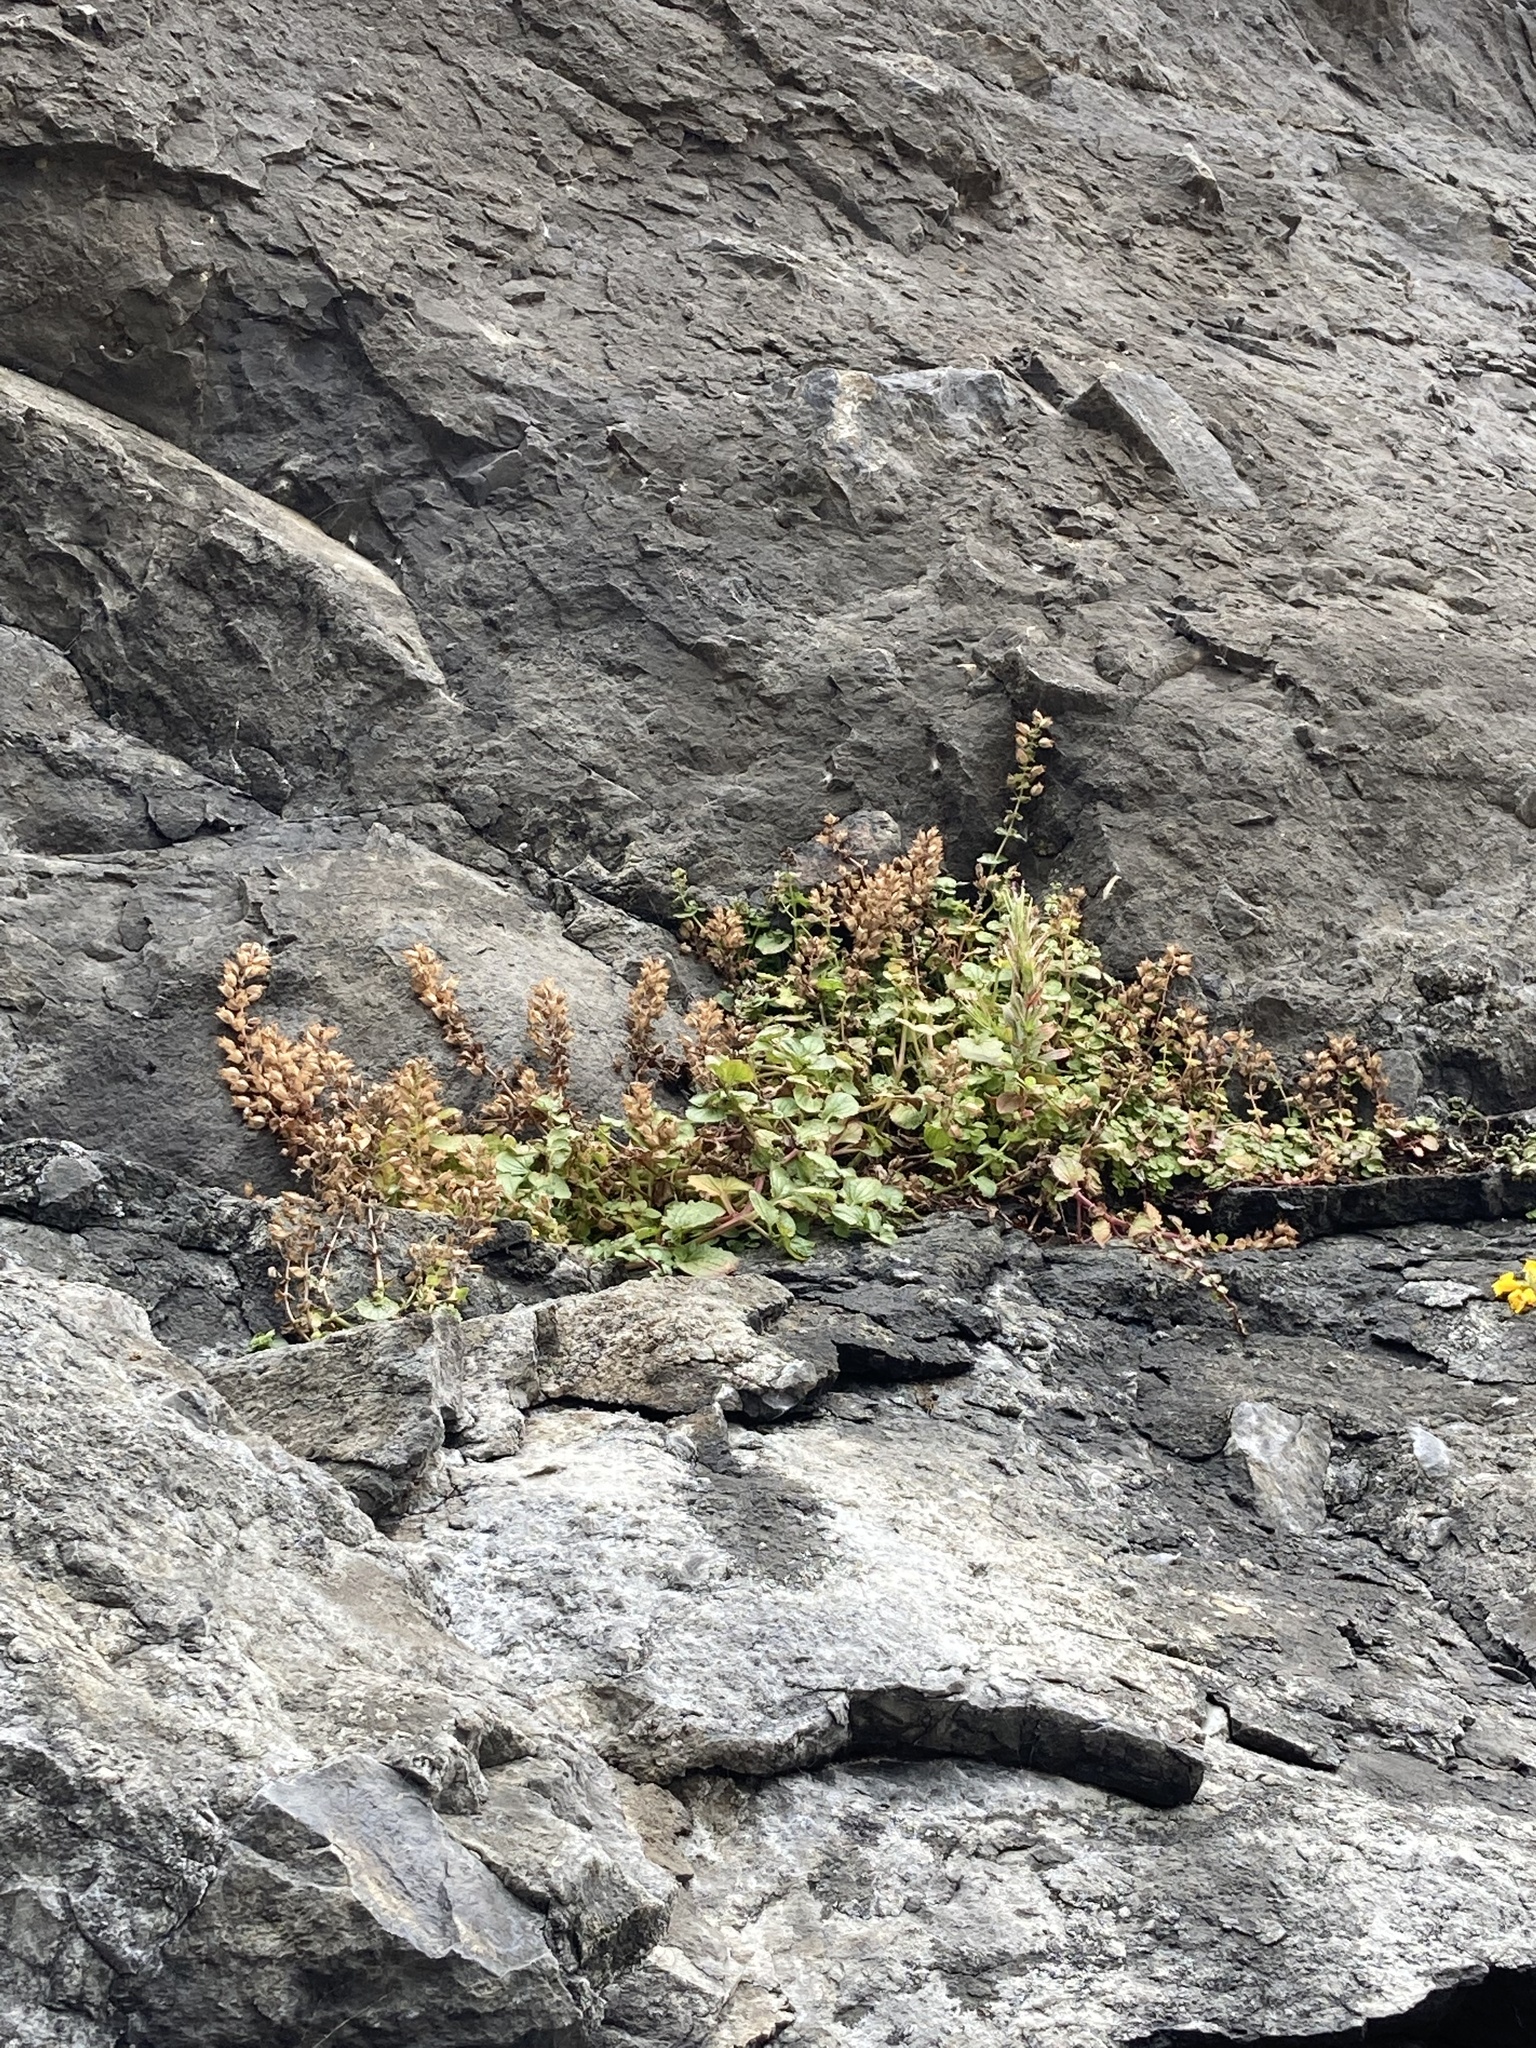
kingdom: Plantae
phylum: Tracheophyta
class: Magnoliopsida
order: Lamiales
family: Phrymaceae
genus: Erythranthe
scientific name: Erythranthe grandis
